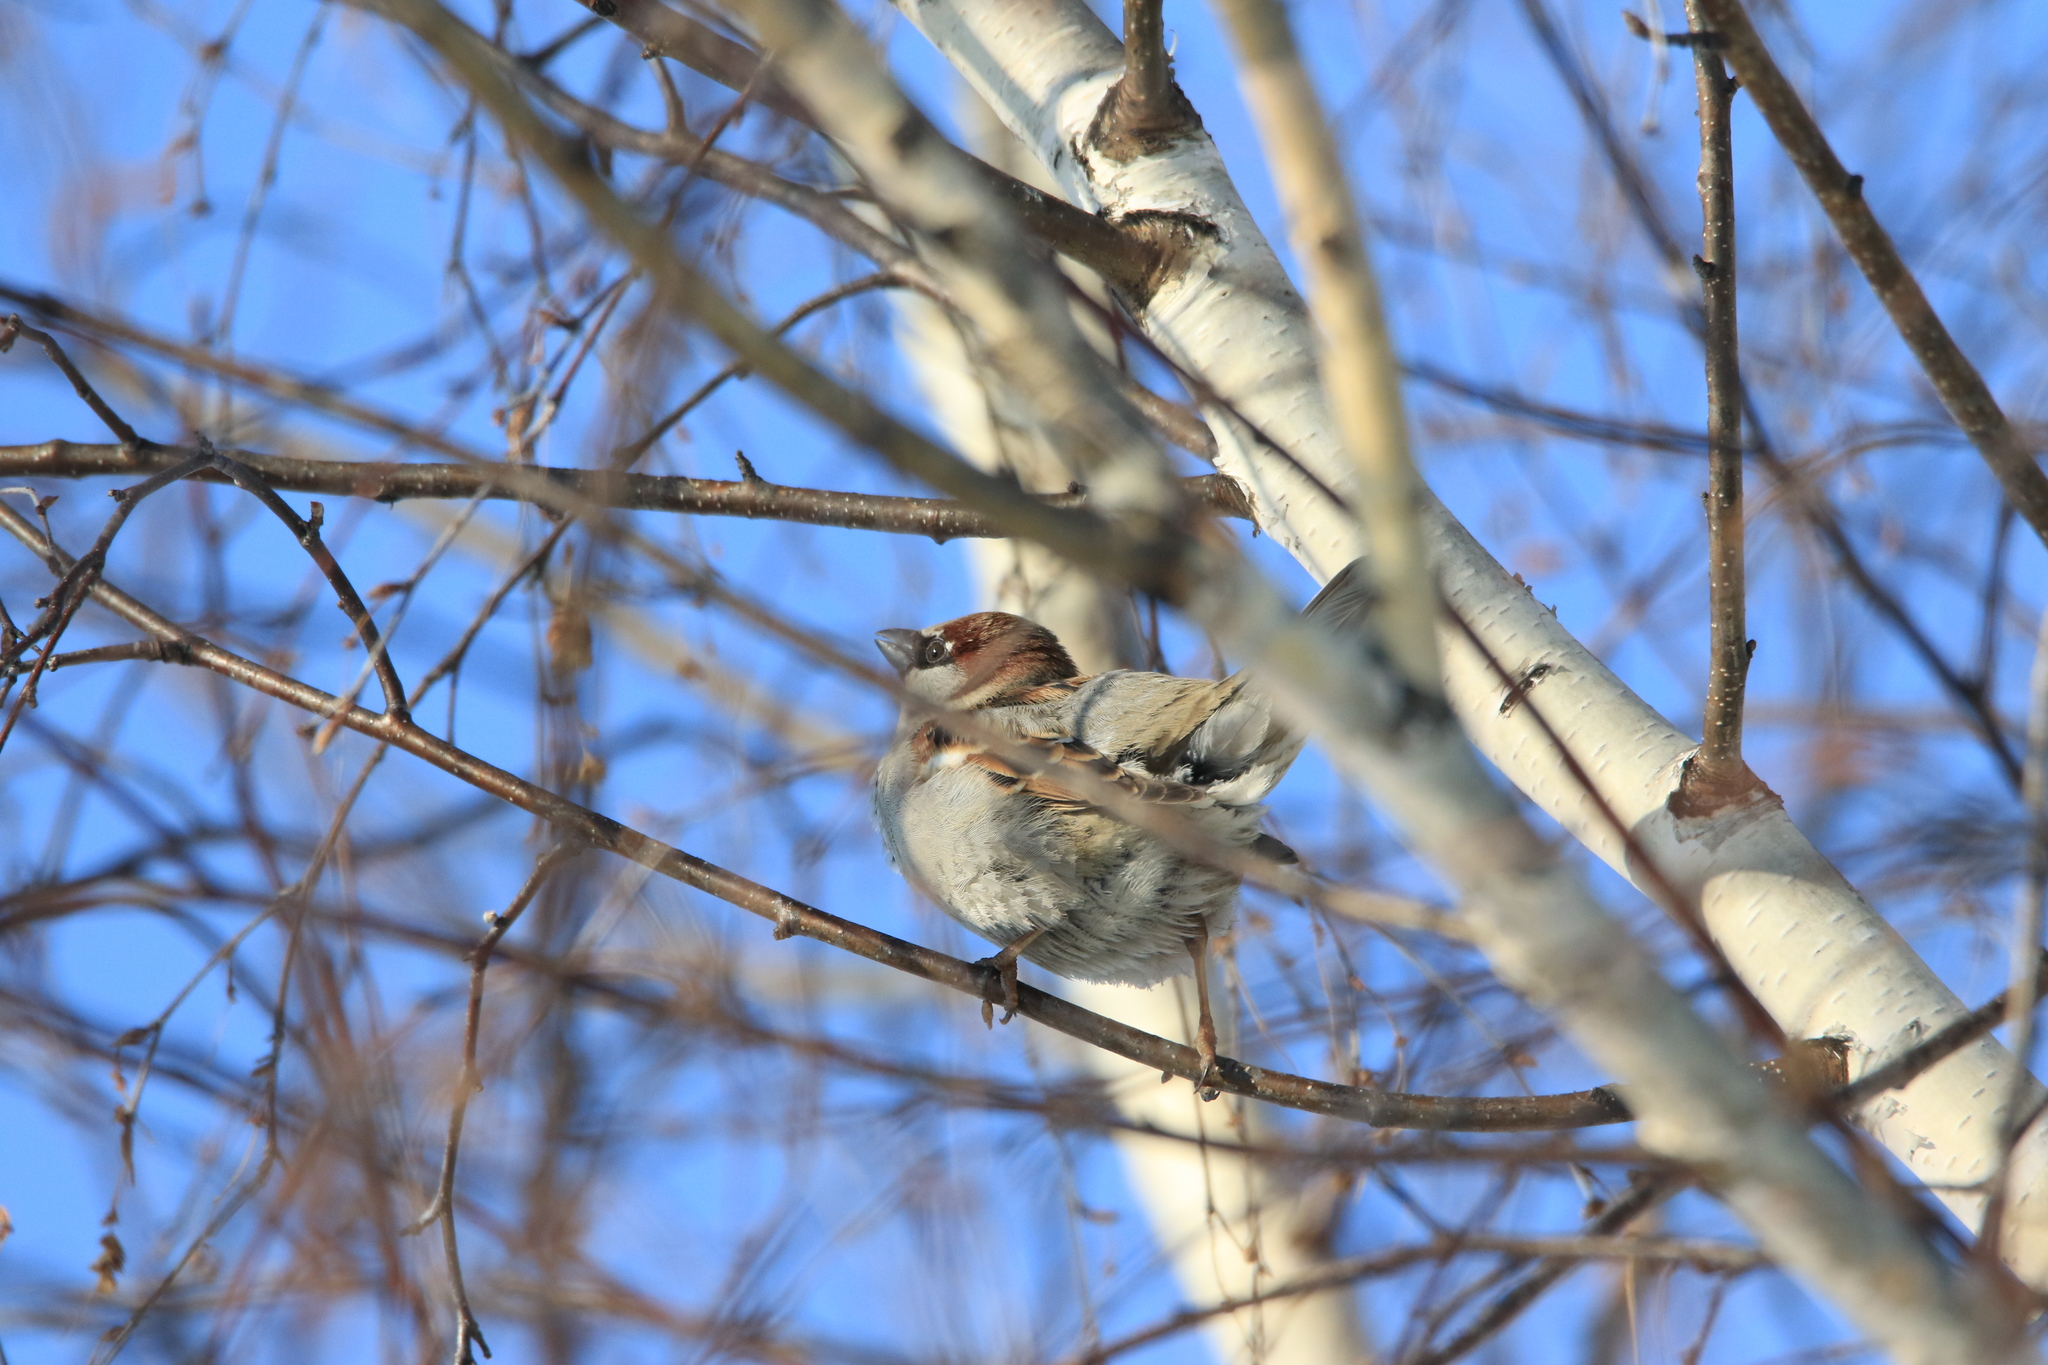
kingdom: Animalia
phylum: Chordata
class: Aves
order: Passeriformes
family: Passeridae
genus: Passer
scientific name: Passer domesticus
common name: House sparrow
